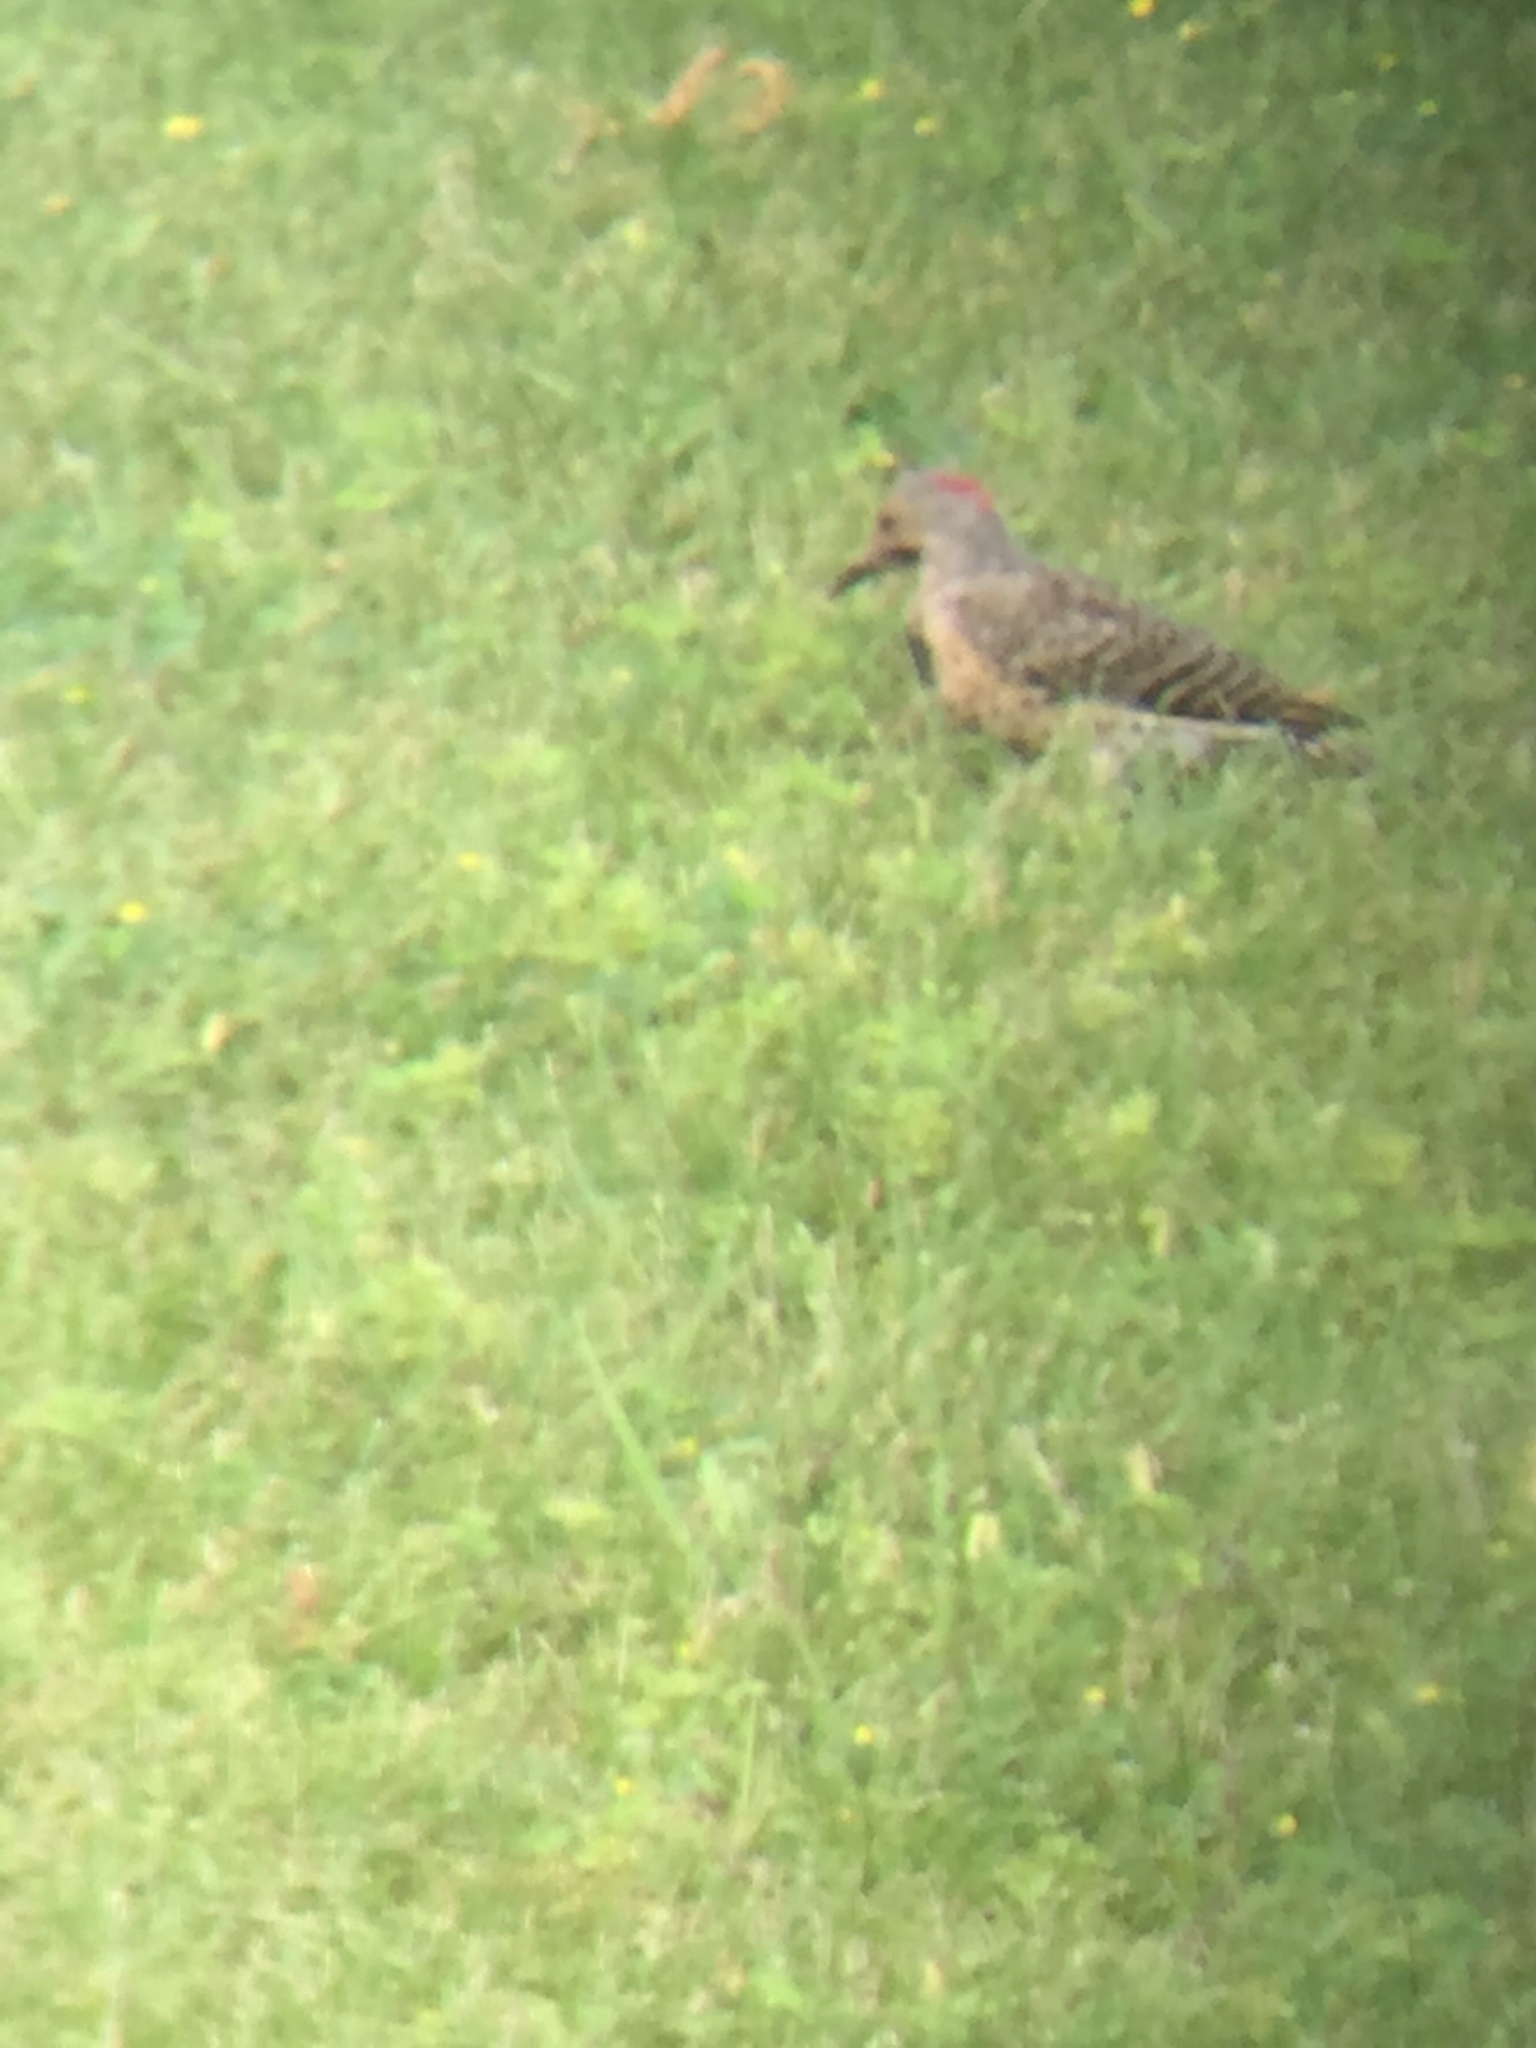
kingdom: Animalia
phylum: Chordata
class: Aves
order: Piciformes
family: Picidae
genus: Colaptes
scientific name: Colaptes auratus
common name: Northern flicker
